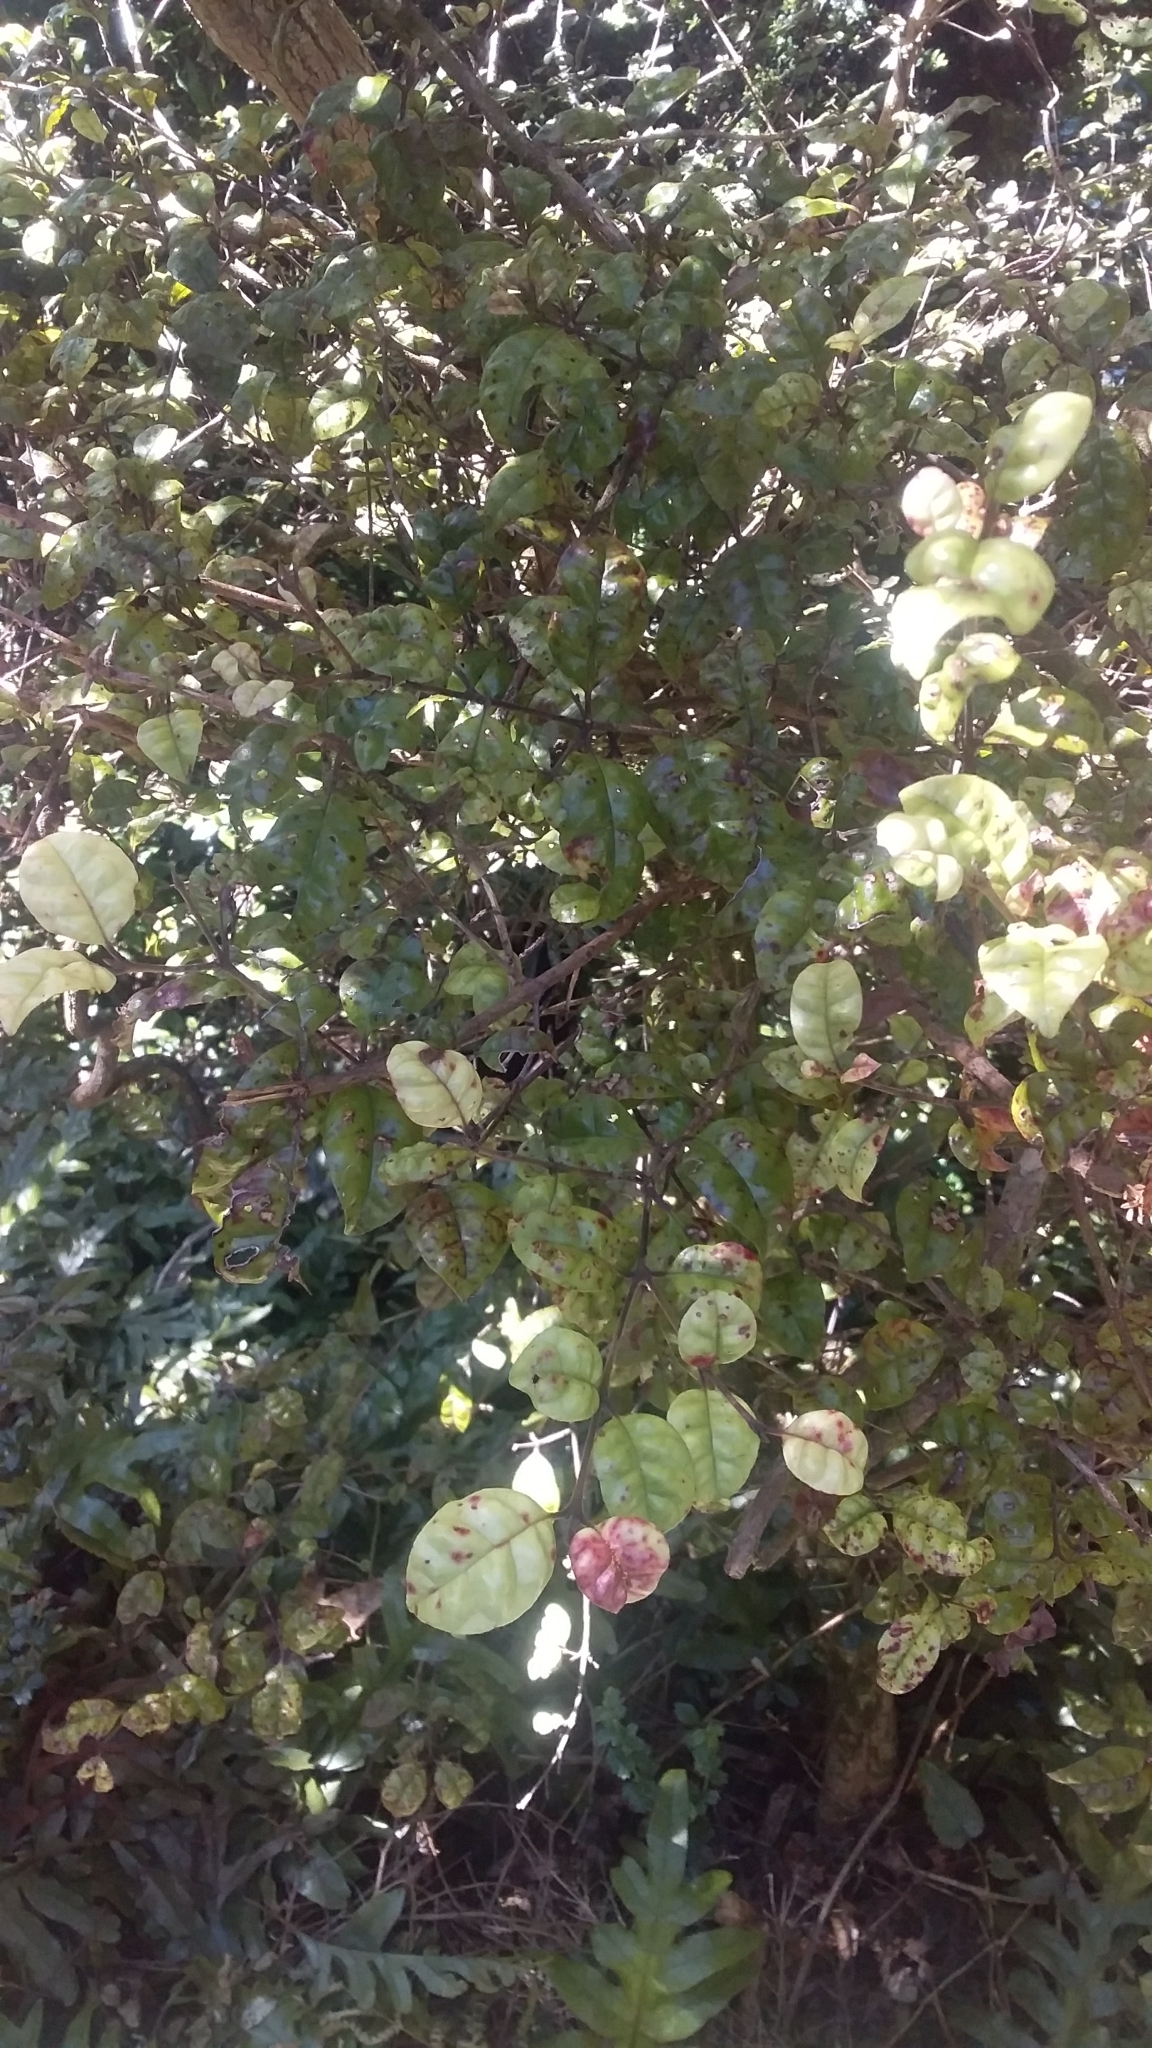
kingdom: Fungi
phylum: Basidiomycota
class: Pucciniomycetes
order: Pucciniales
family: Sphaerophragmiaceae
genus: Austropuccinia
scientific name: Austropuccinia psidii
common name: Myrtle rust
